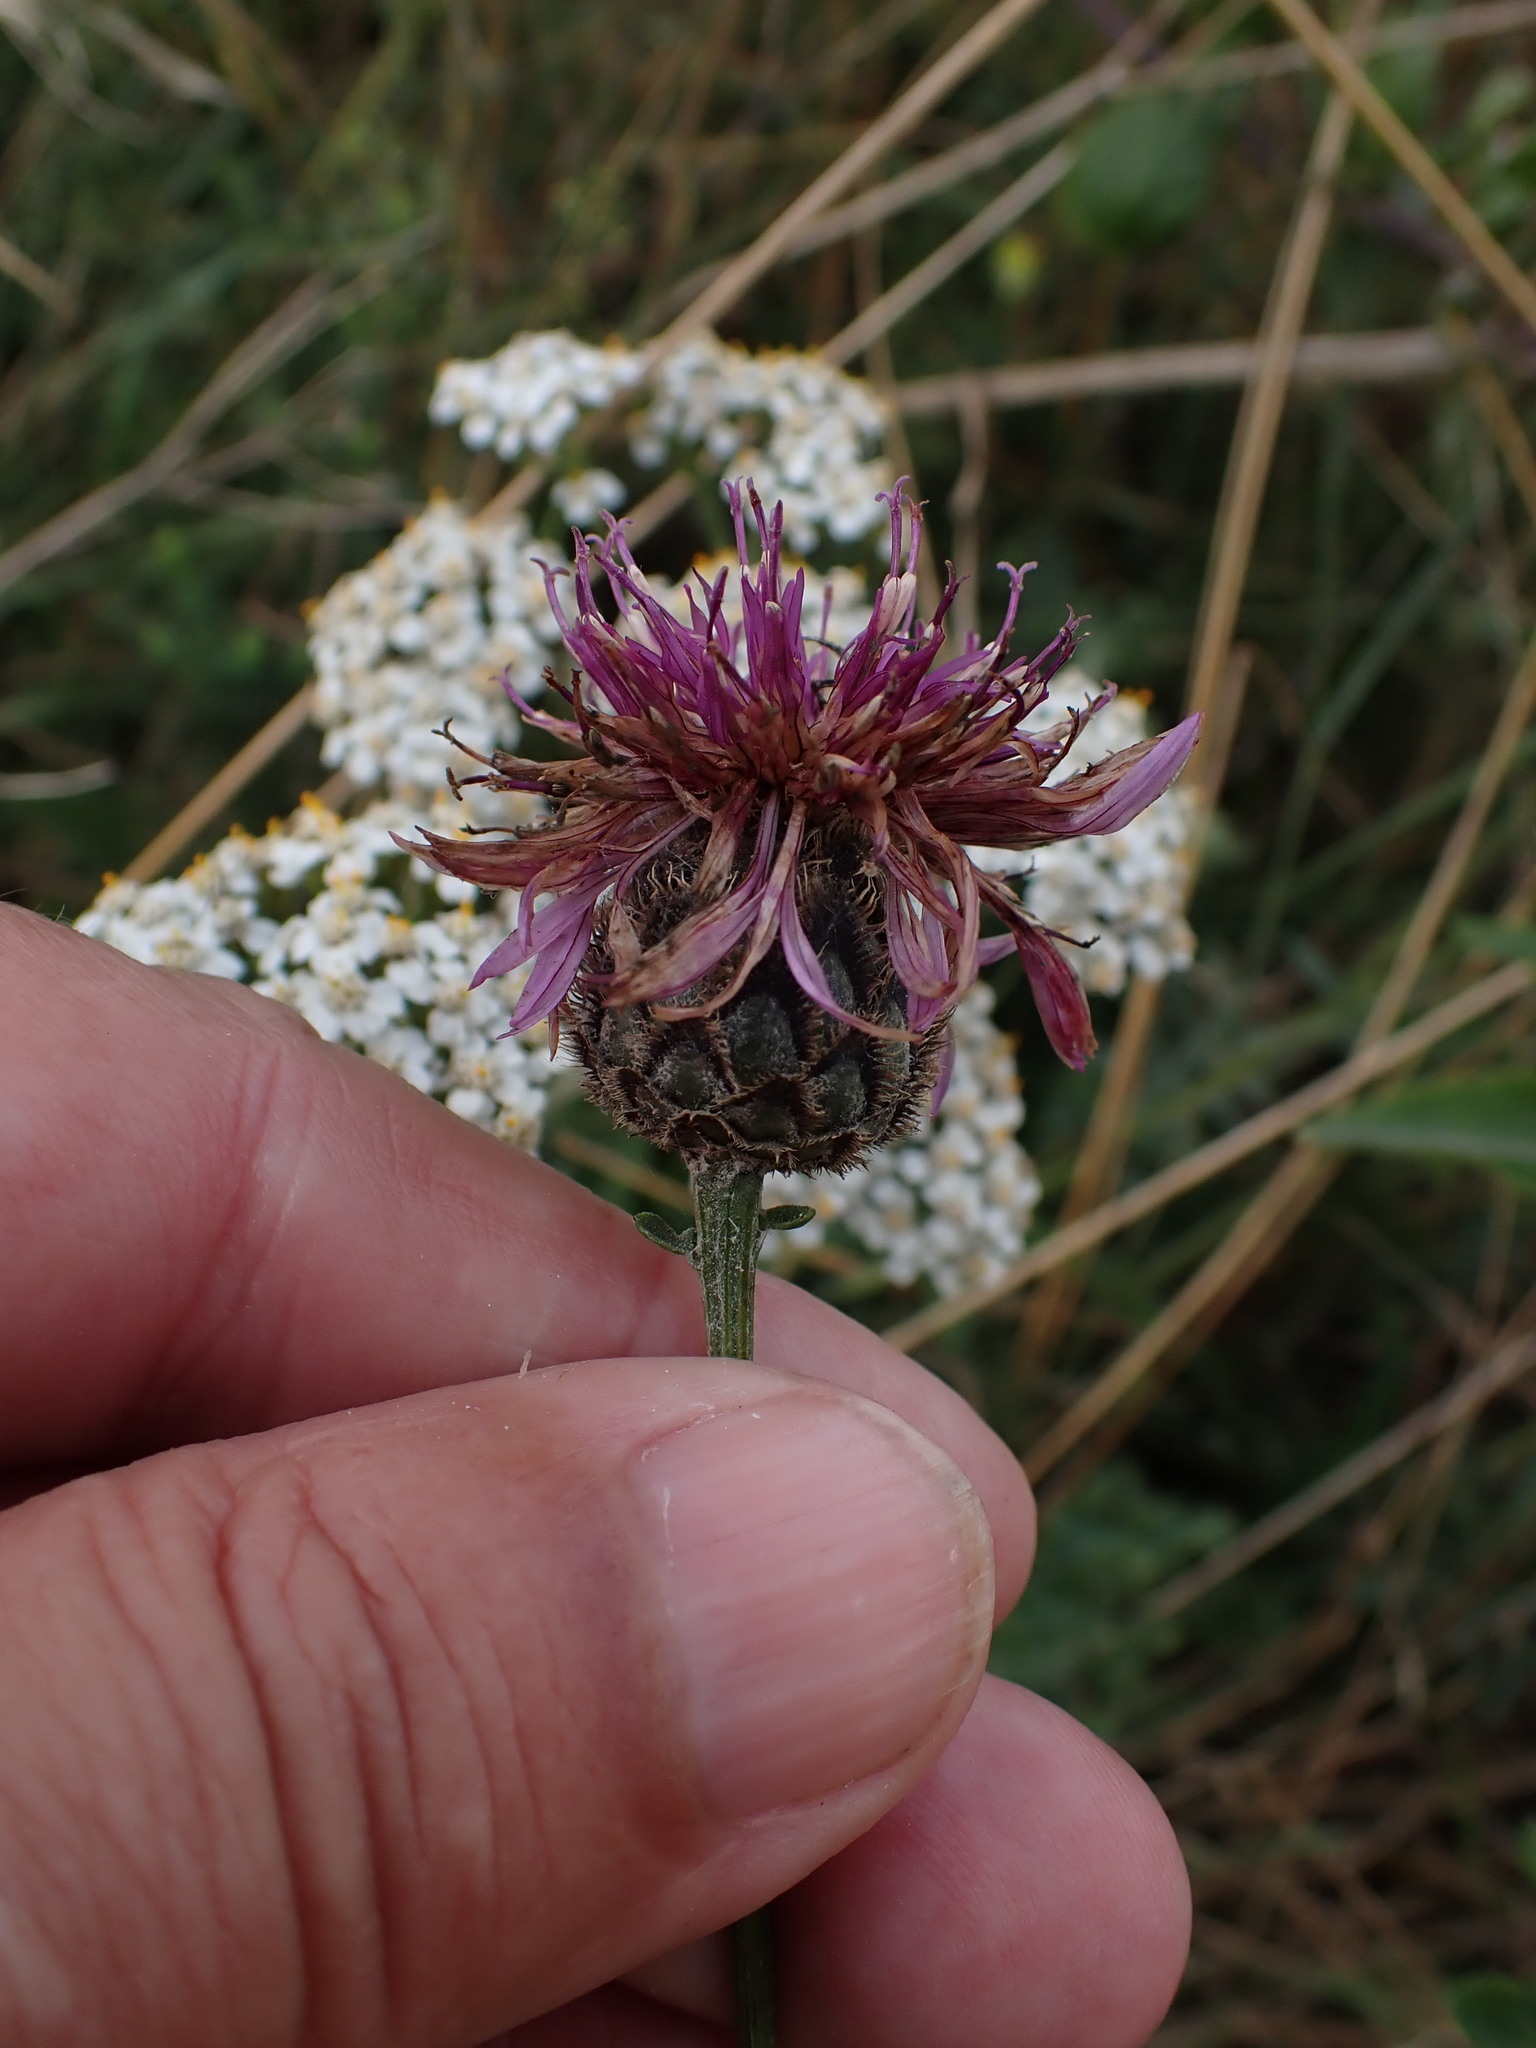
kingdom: Plantae
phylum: Tracheophyta
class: Magnoliopsida
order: Asterales
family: Asteraceae
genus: Centaurea
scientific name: Centaurea scabiosa
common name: Greater knapweed
